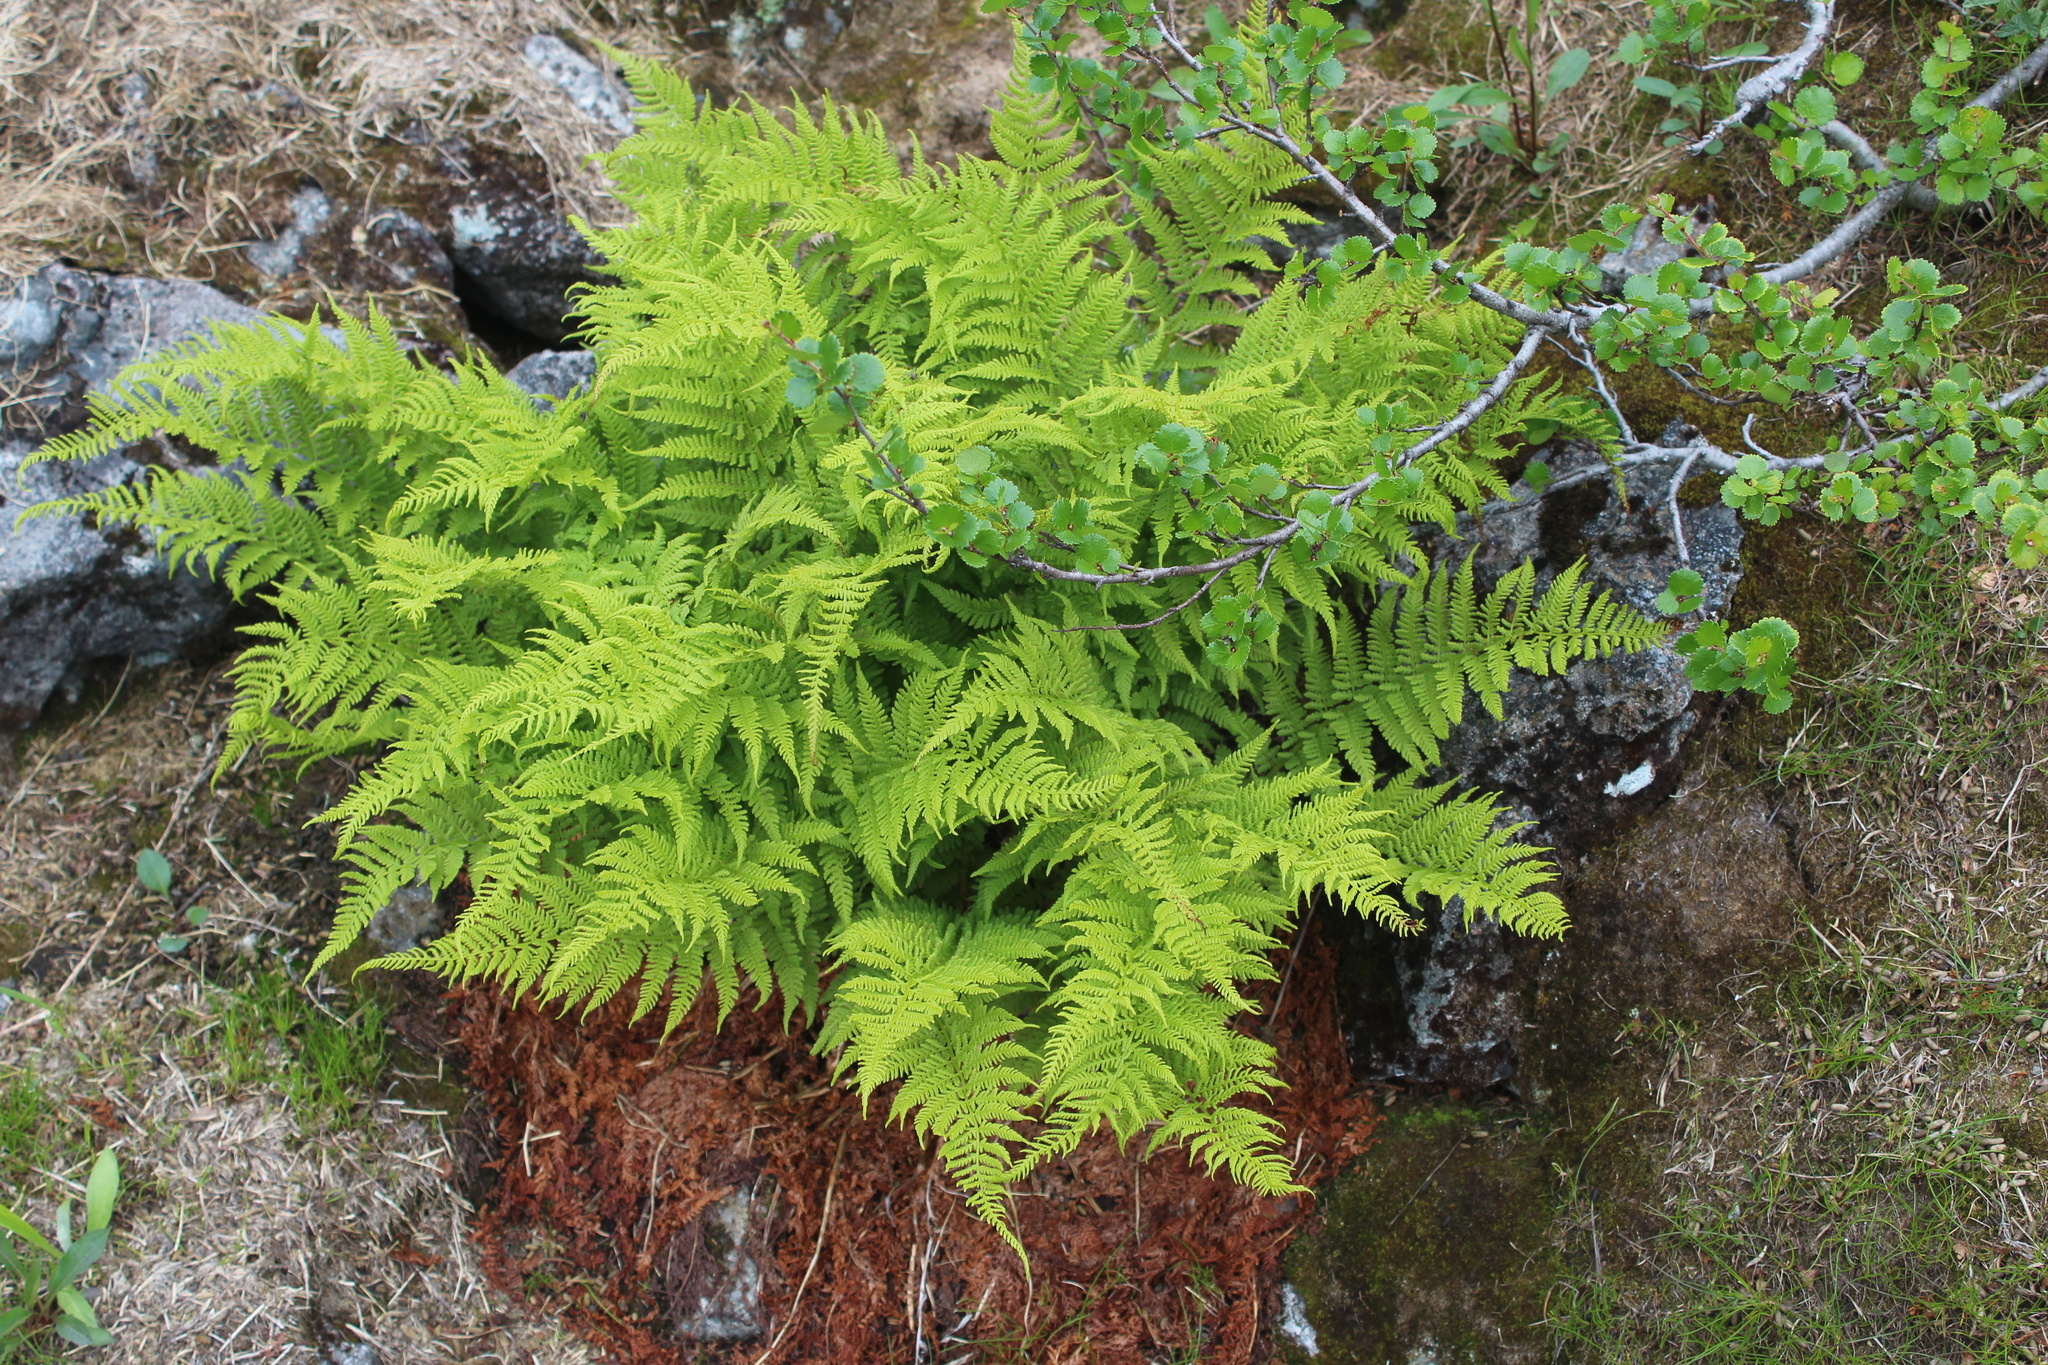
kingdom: Plantae
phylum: Tracheophyta
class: Polypodiopsida
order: Polypodiales
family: Athyriaceae
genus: Athyrium
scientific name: Athyrium filix-femina
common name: Lady fern
